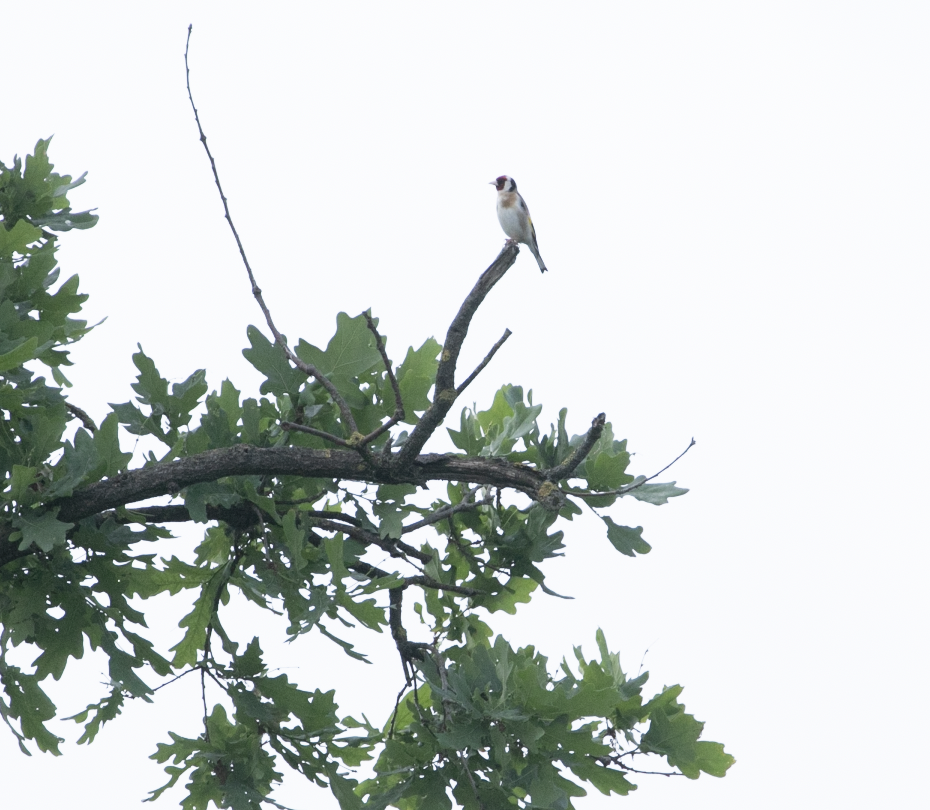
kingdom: Animalia
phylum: Chordata
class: Aves
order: Passeriformes
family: Fringillidae
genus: Carduelis
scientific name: Carduelis carduelis
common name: European goldfinch
